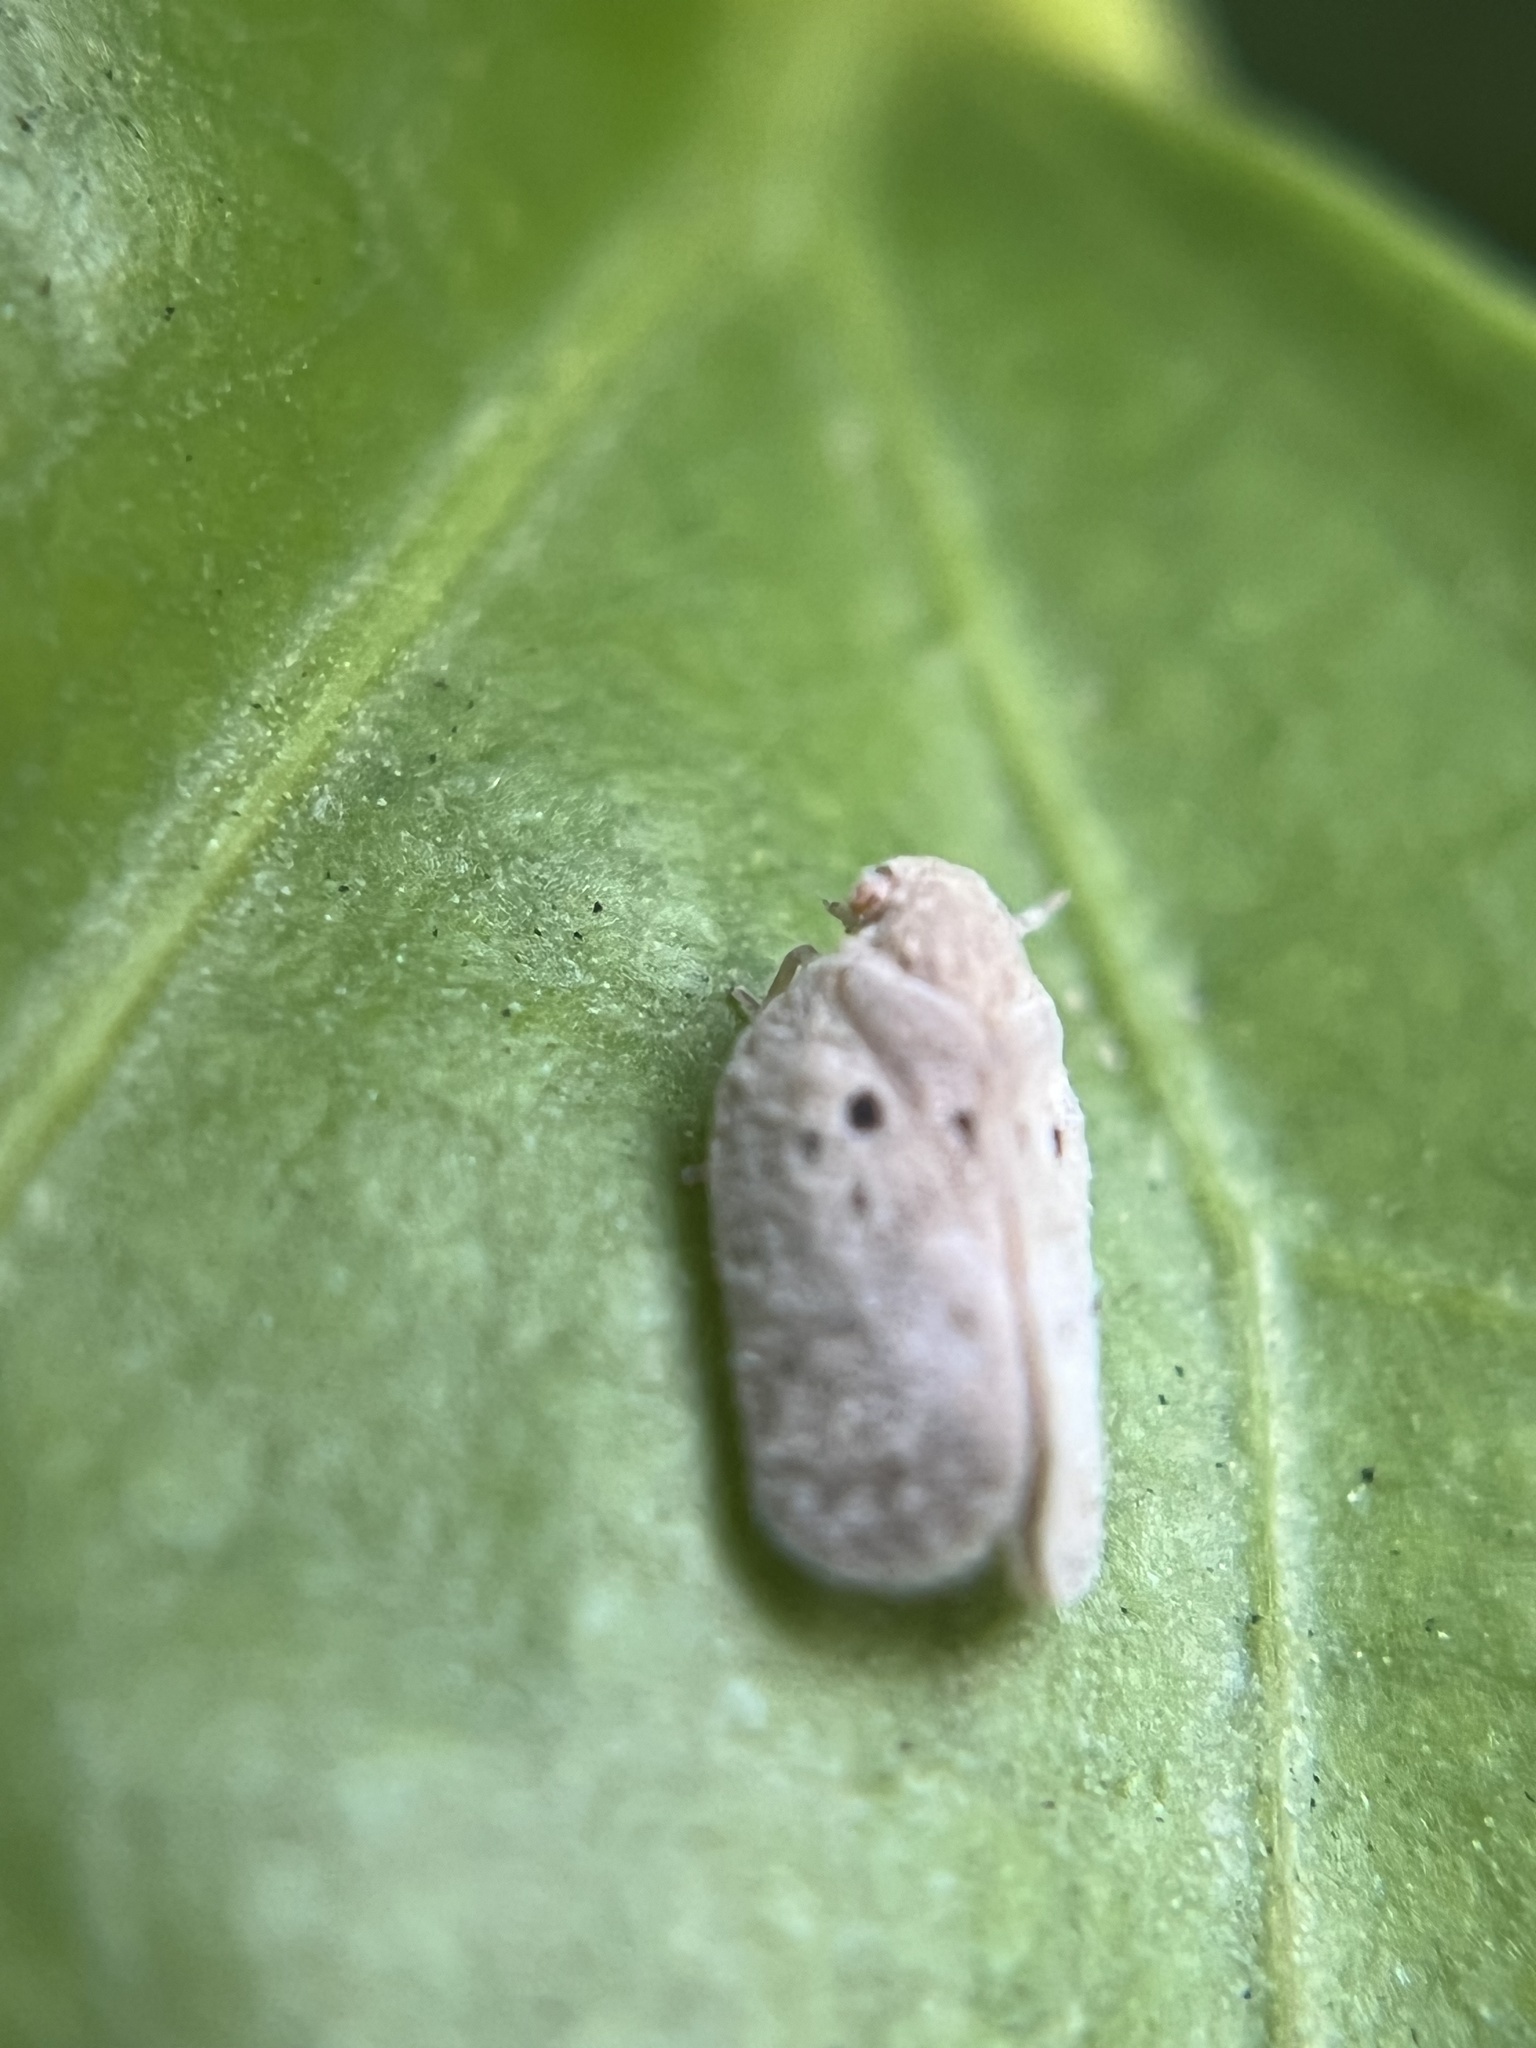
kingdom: Animalia
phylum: Arthropoda
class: Insecta
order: Hemiptera
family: Flatidae
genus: Melormenis
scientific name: Melormenis basalis
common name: Puerto rican planthopper
